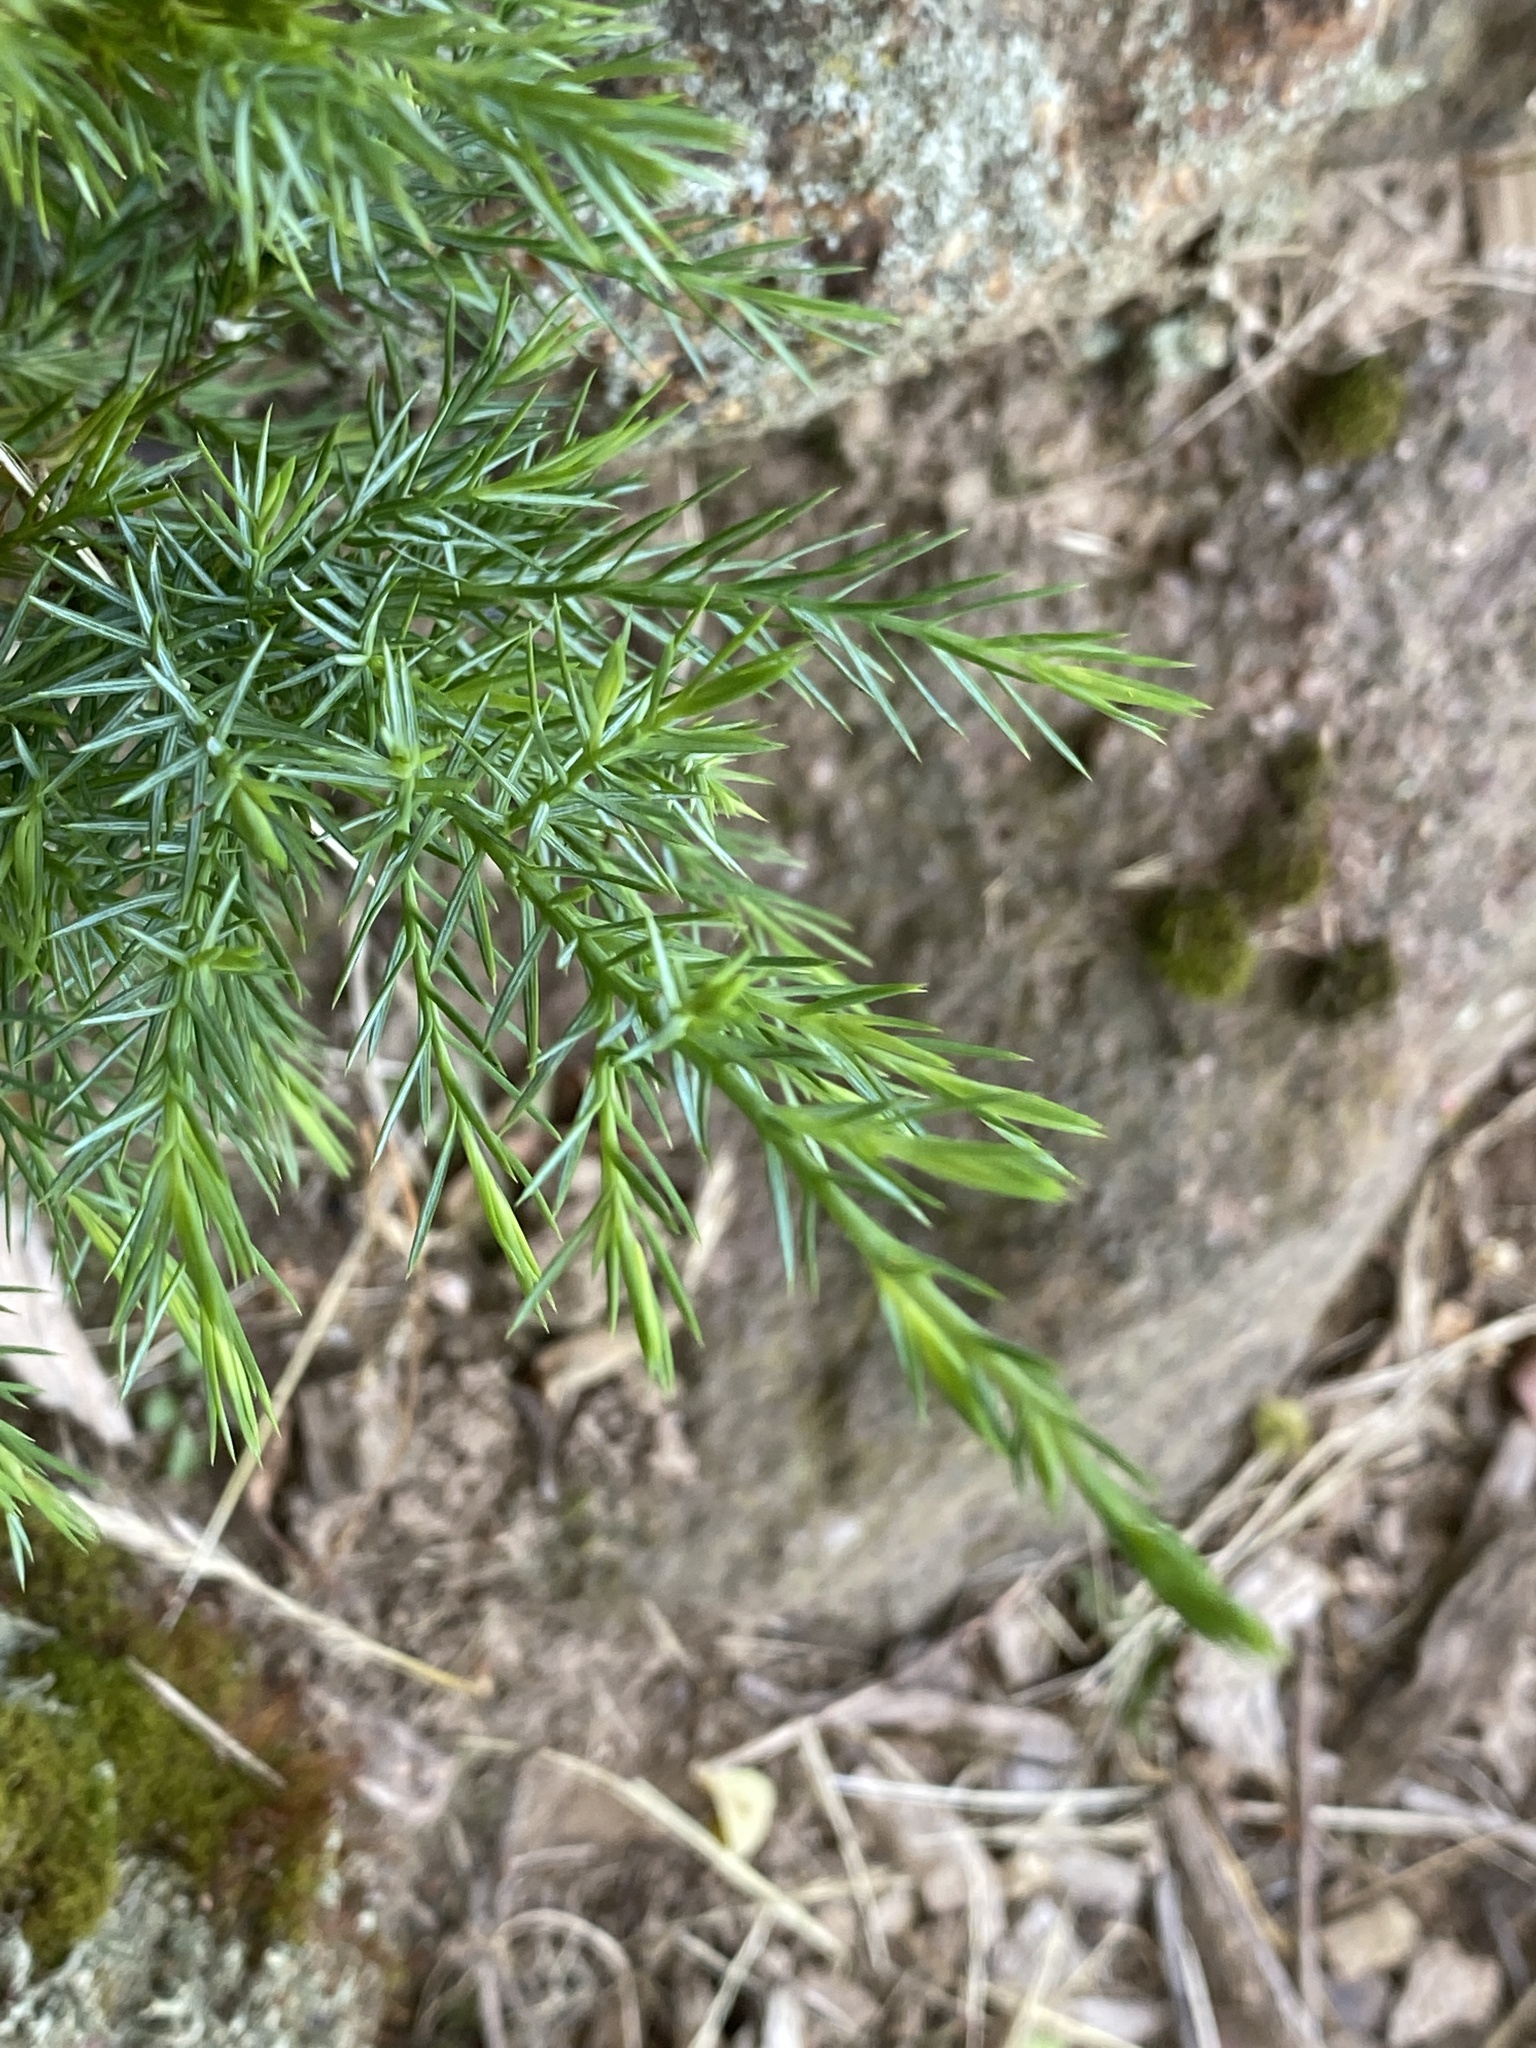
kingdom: Plantae
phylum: Tracheophyta
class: Pinopsida
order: Pinales
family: Cupressaceae
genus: Juniperus
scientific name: Juniperus virginiana
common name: Red juniper
